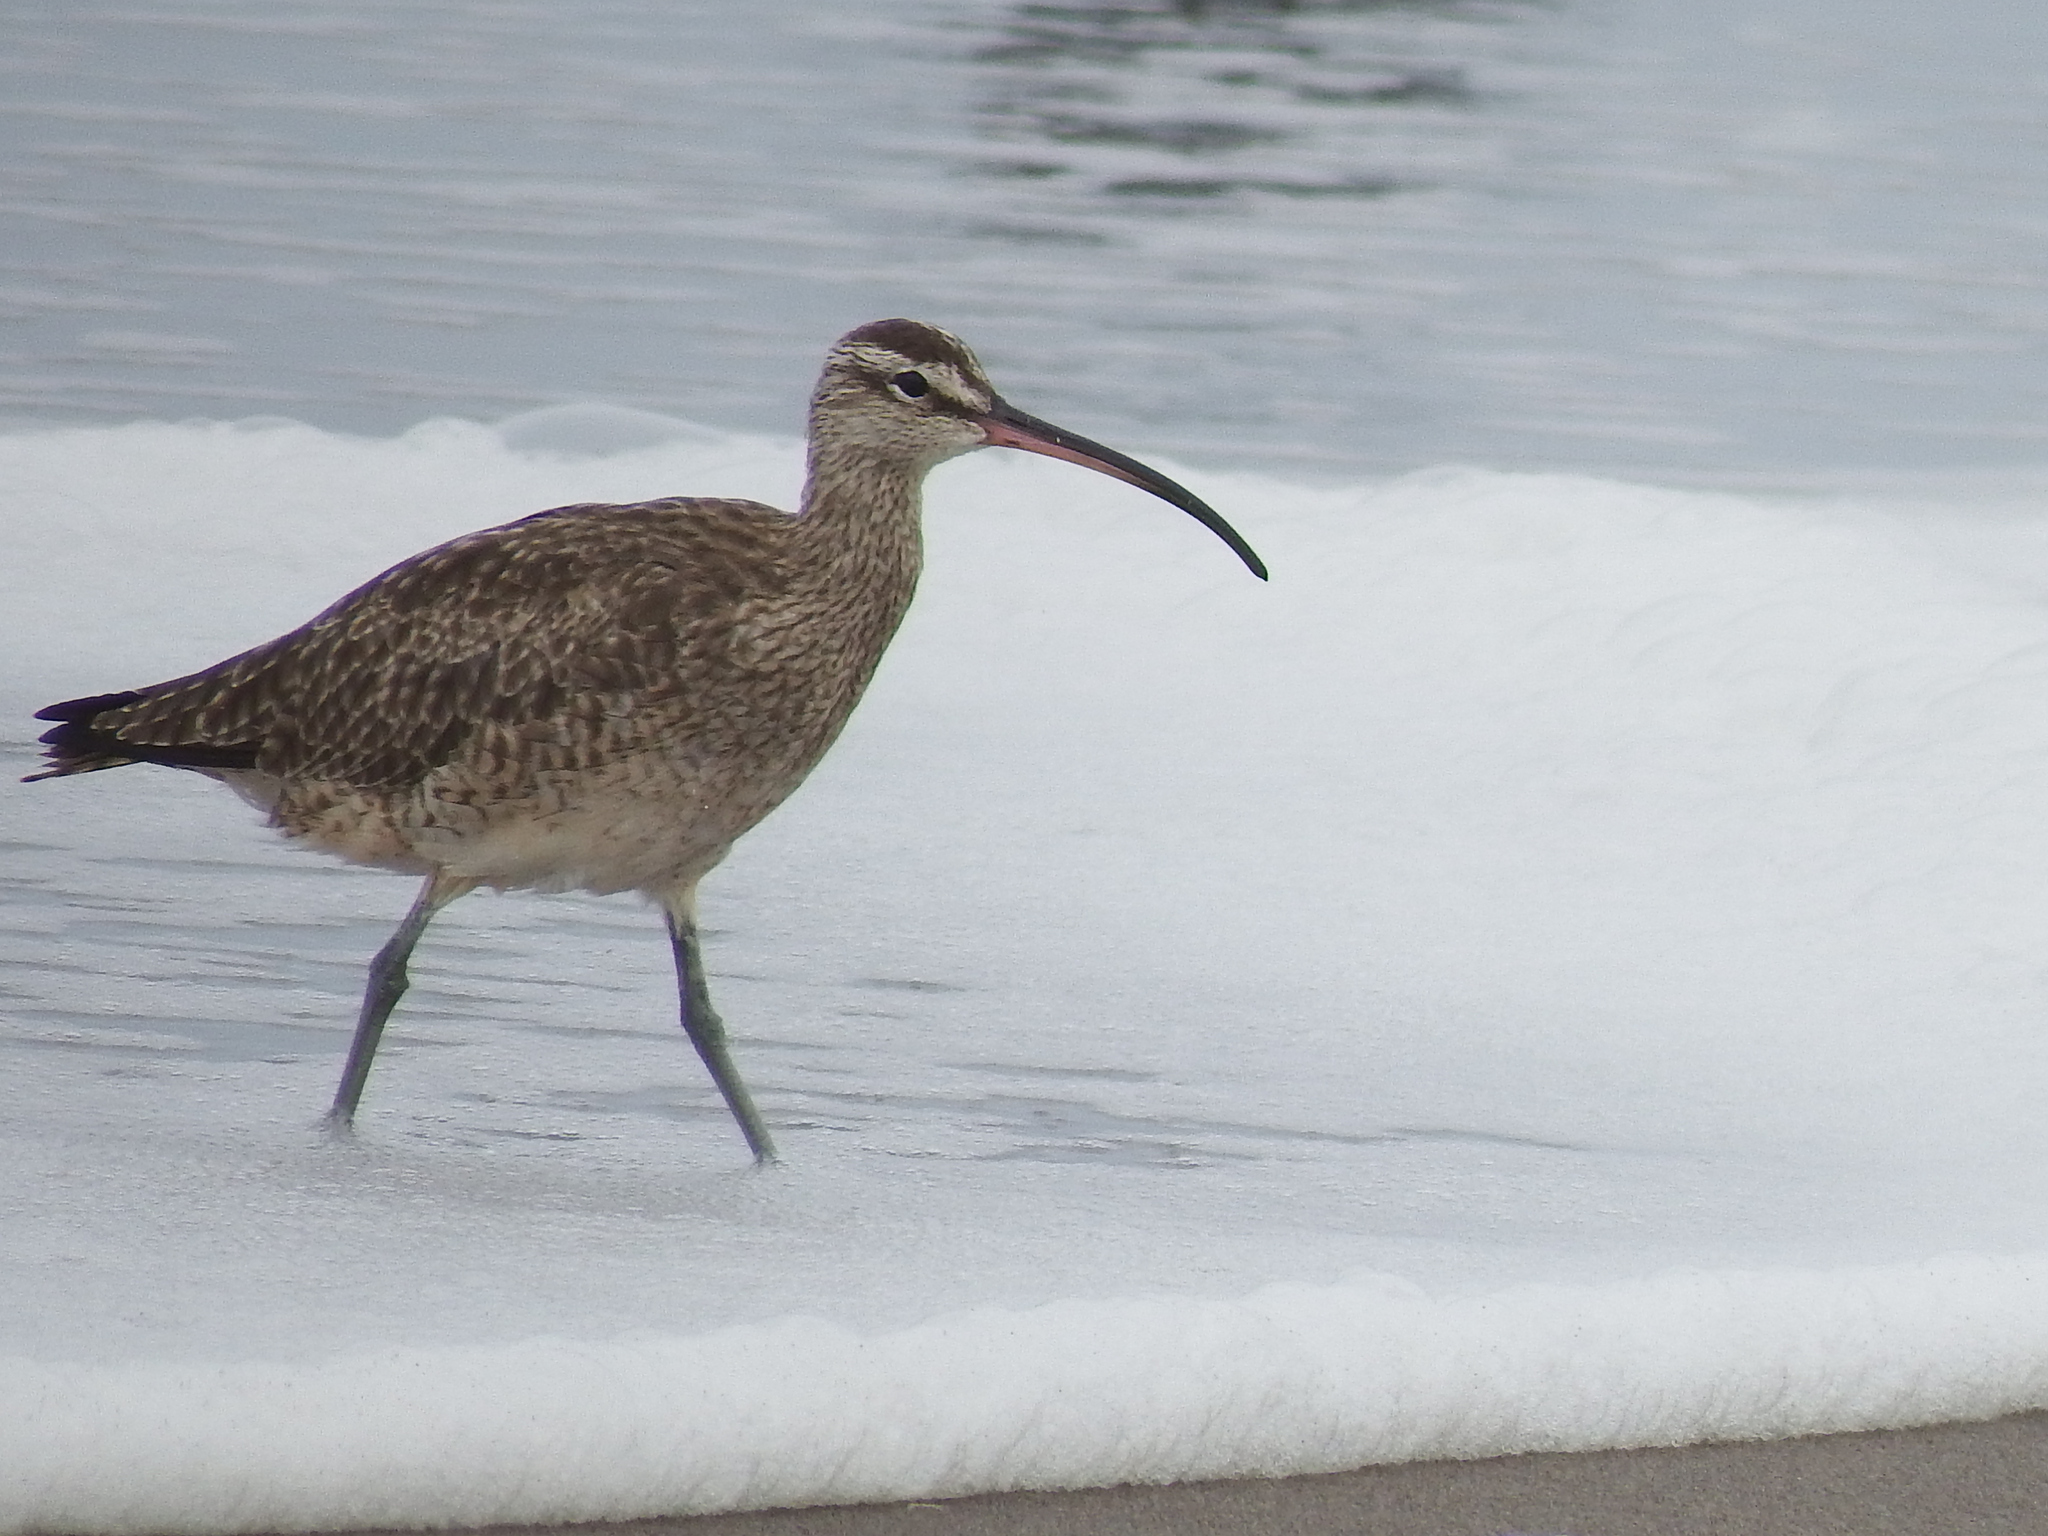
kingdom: Animalia
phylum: Chordata
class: Aves
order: Charadriiformes
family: Scolopacidae
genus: Numenius
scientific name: Numenius phaeopus
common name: Whimbrel
